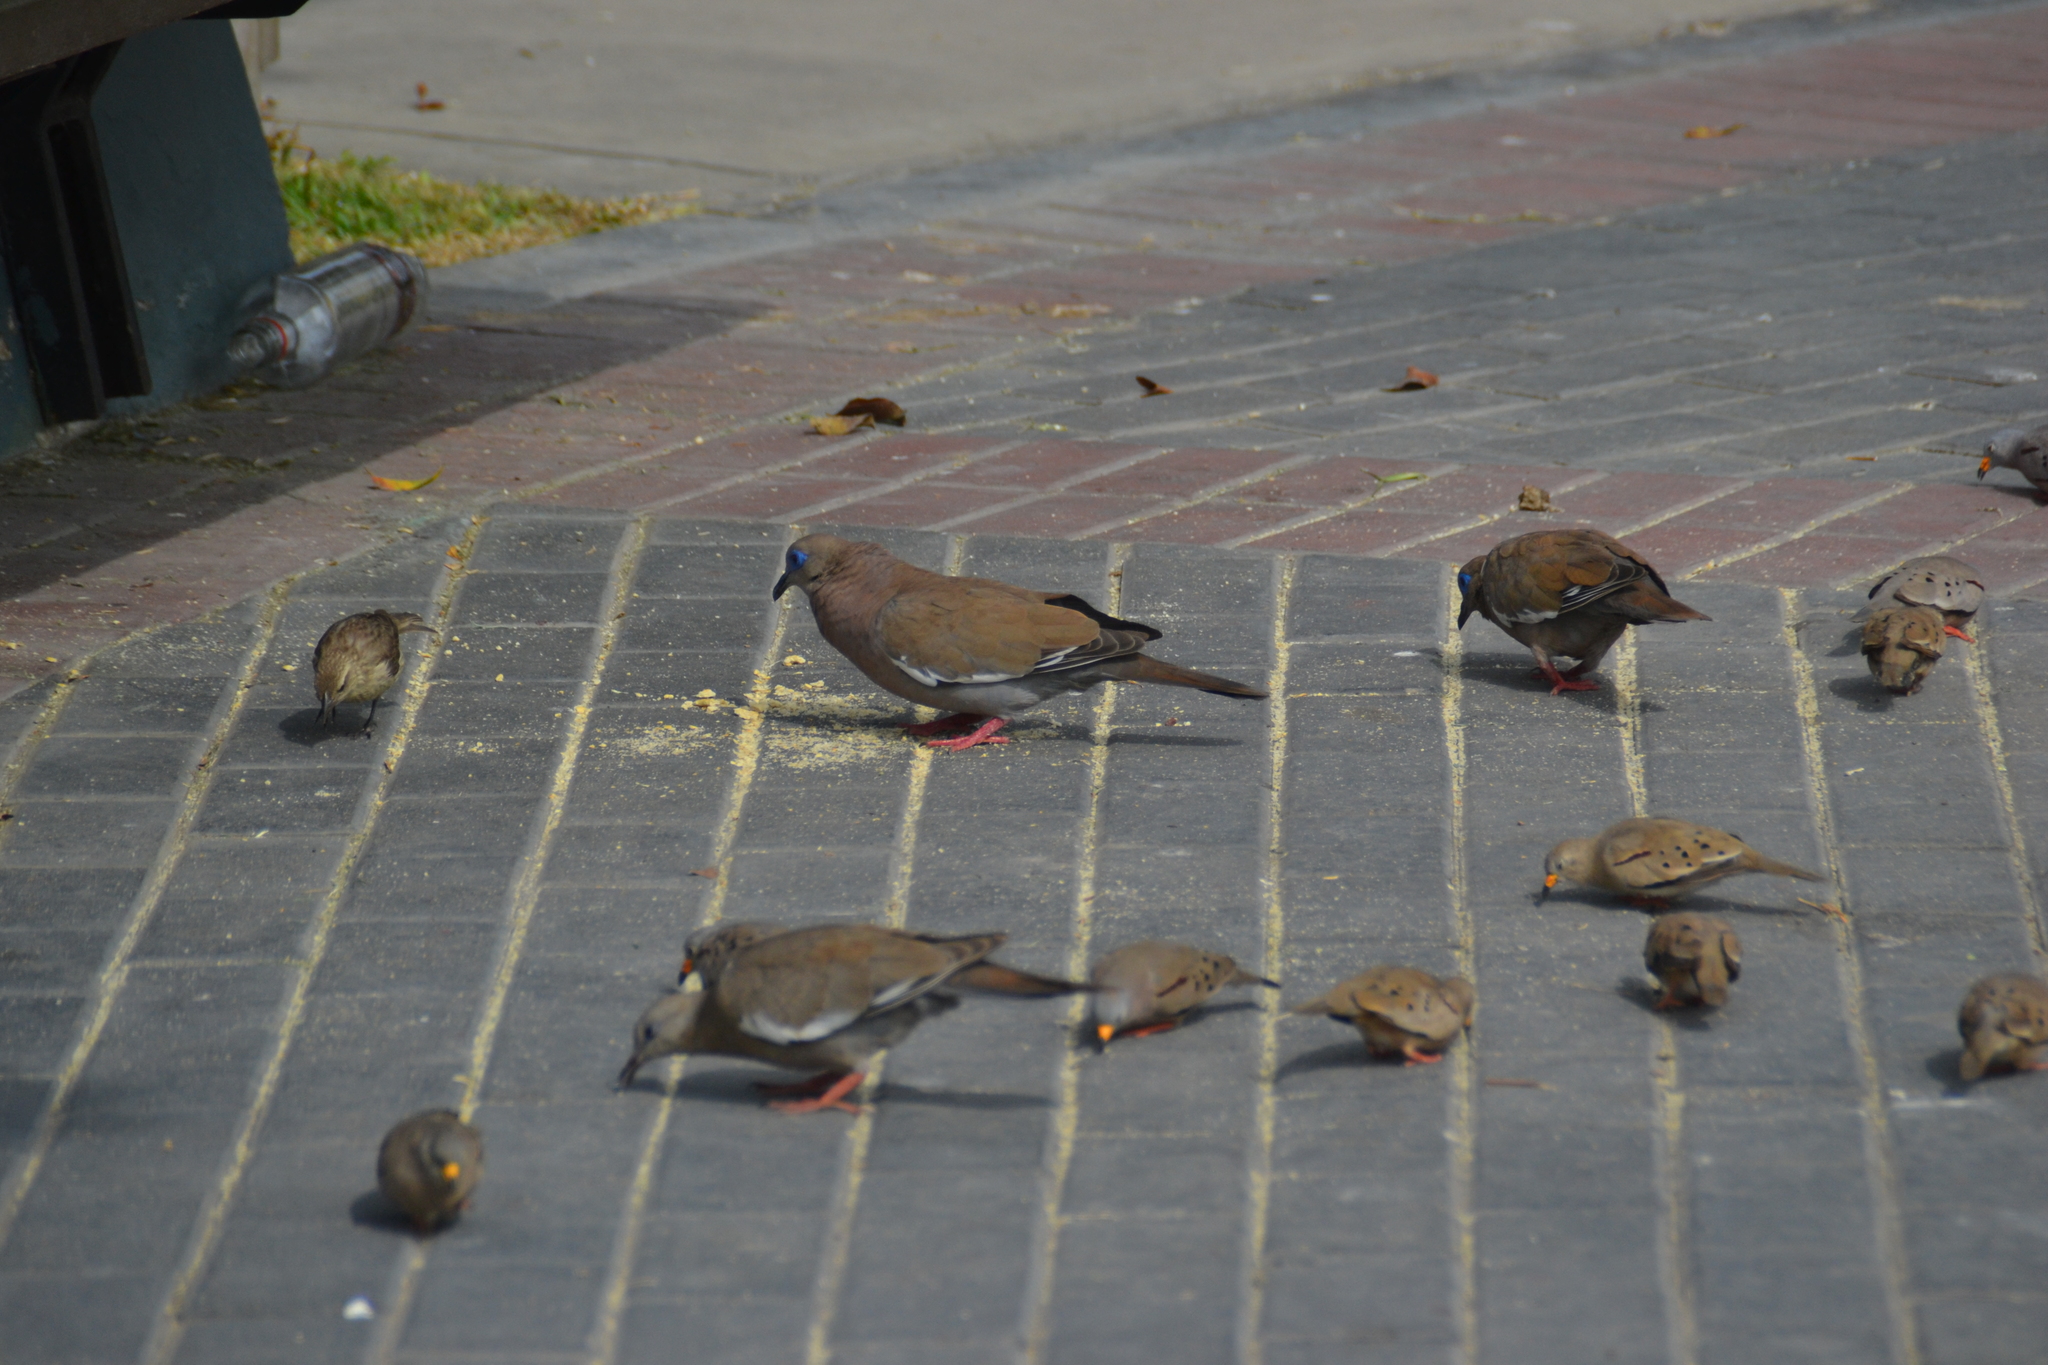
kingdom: Animalia
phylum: Chordata
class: Aves
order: Columbiformes
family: Columbidae
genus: Zenaida
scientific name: Zenaida meloda
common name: West peruvian dove
